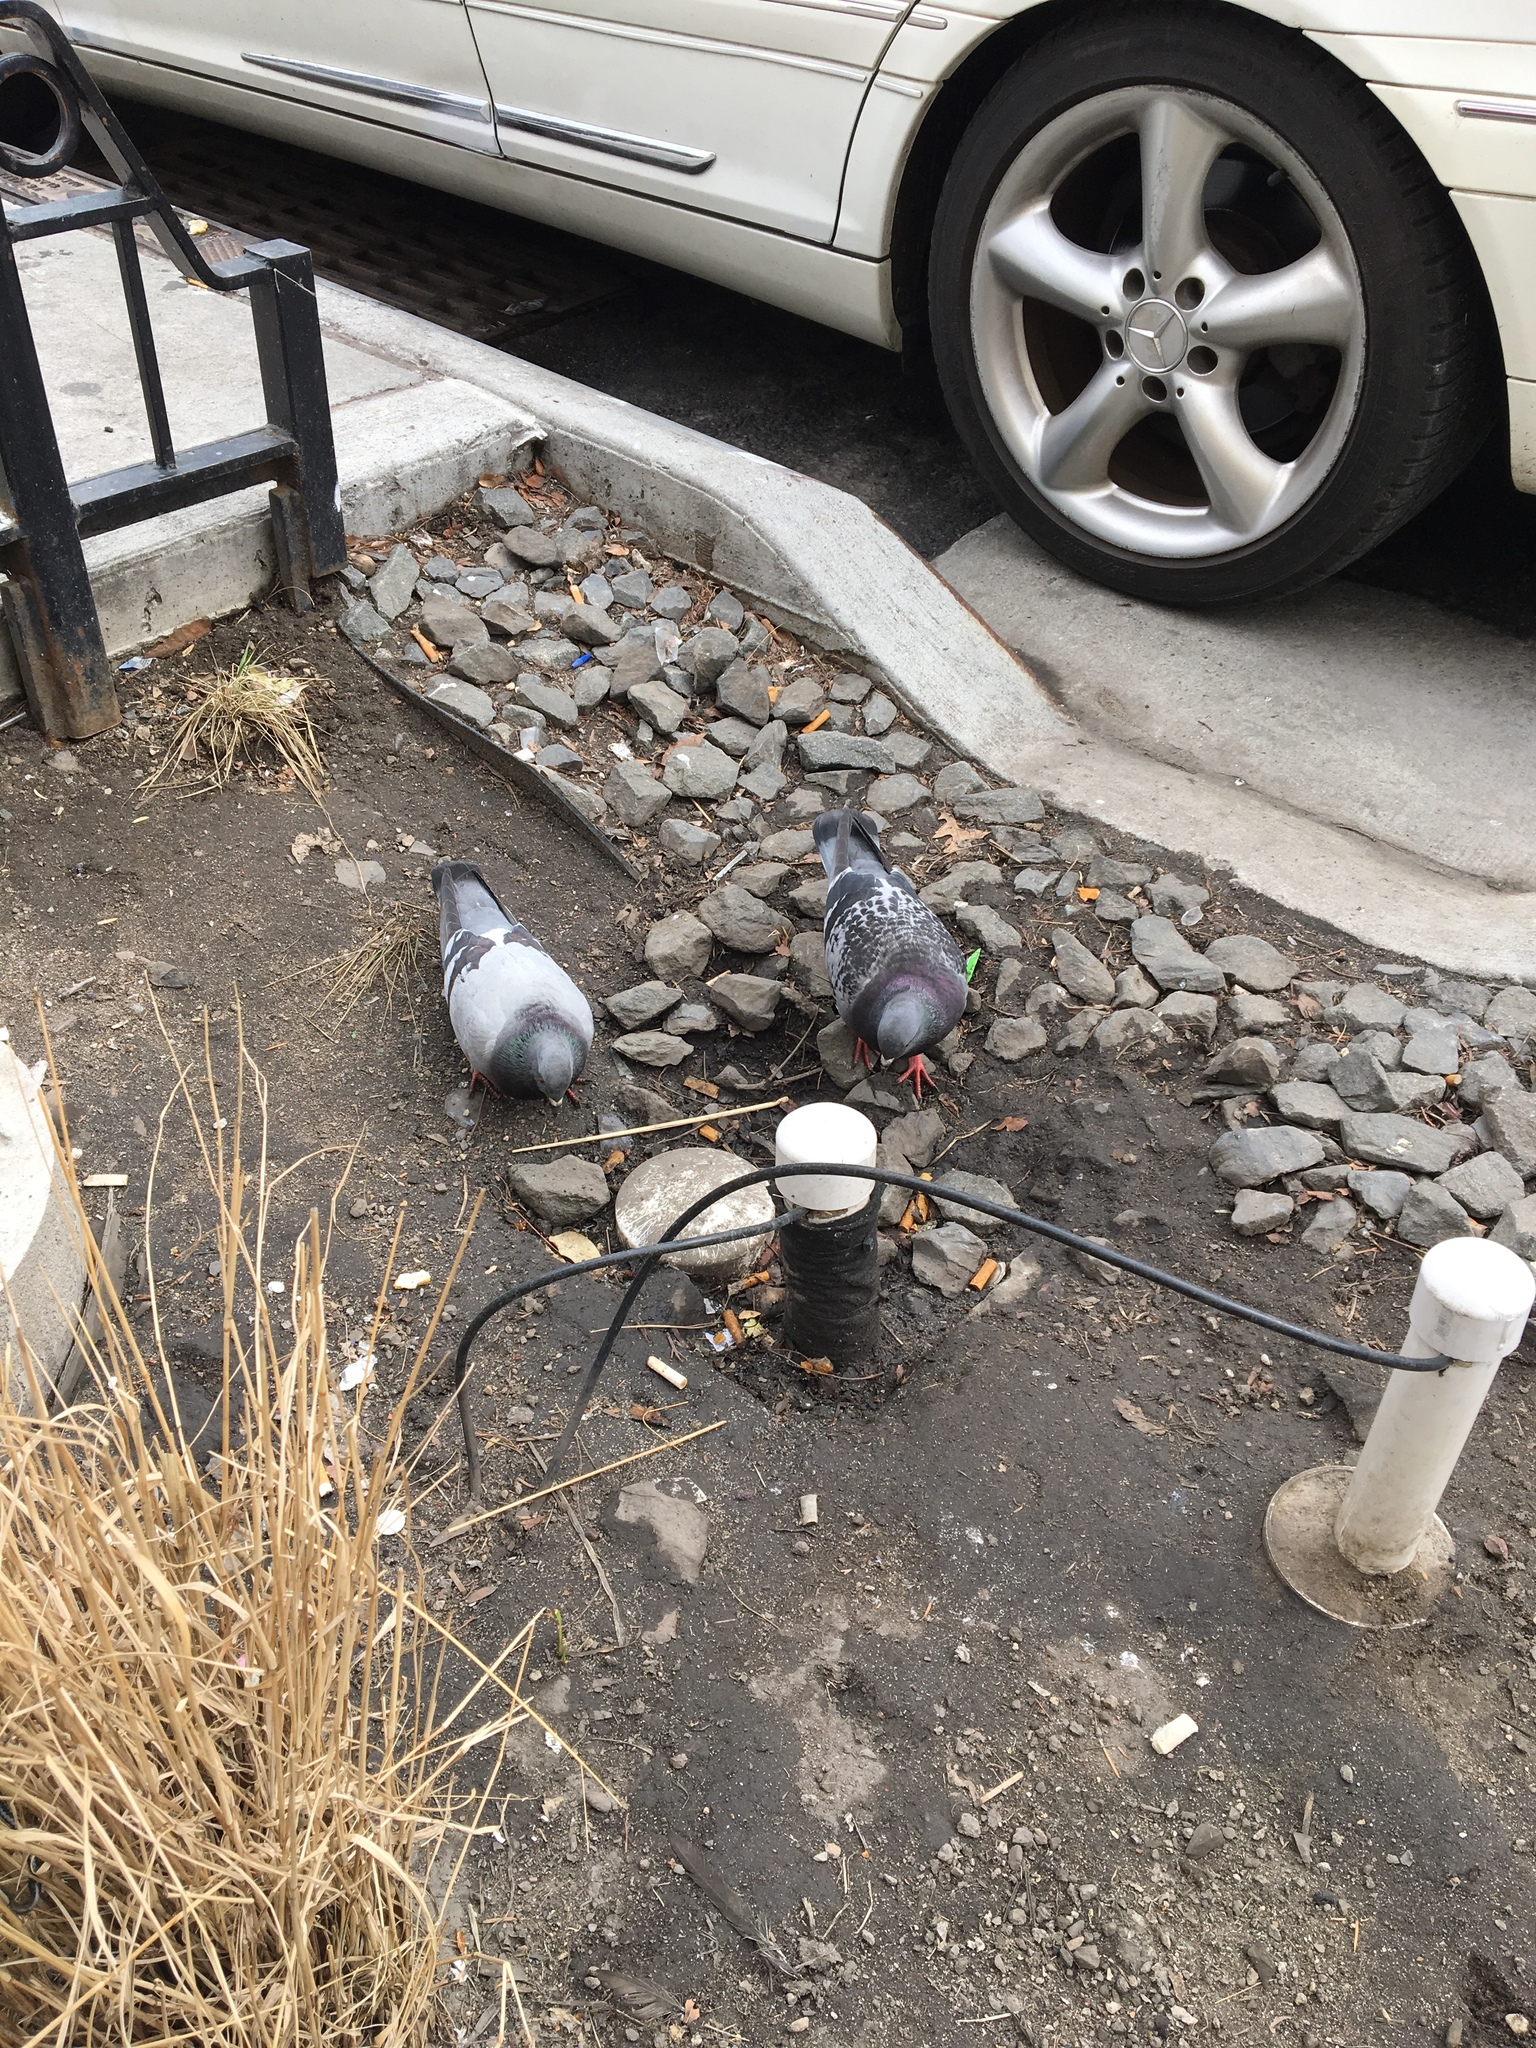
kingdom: Animalia
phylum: Chordata
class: Aves
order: Columbiformes
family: Columbidae
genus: Columba
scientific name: Columba livia
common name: Rock pigeon
